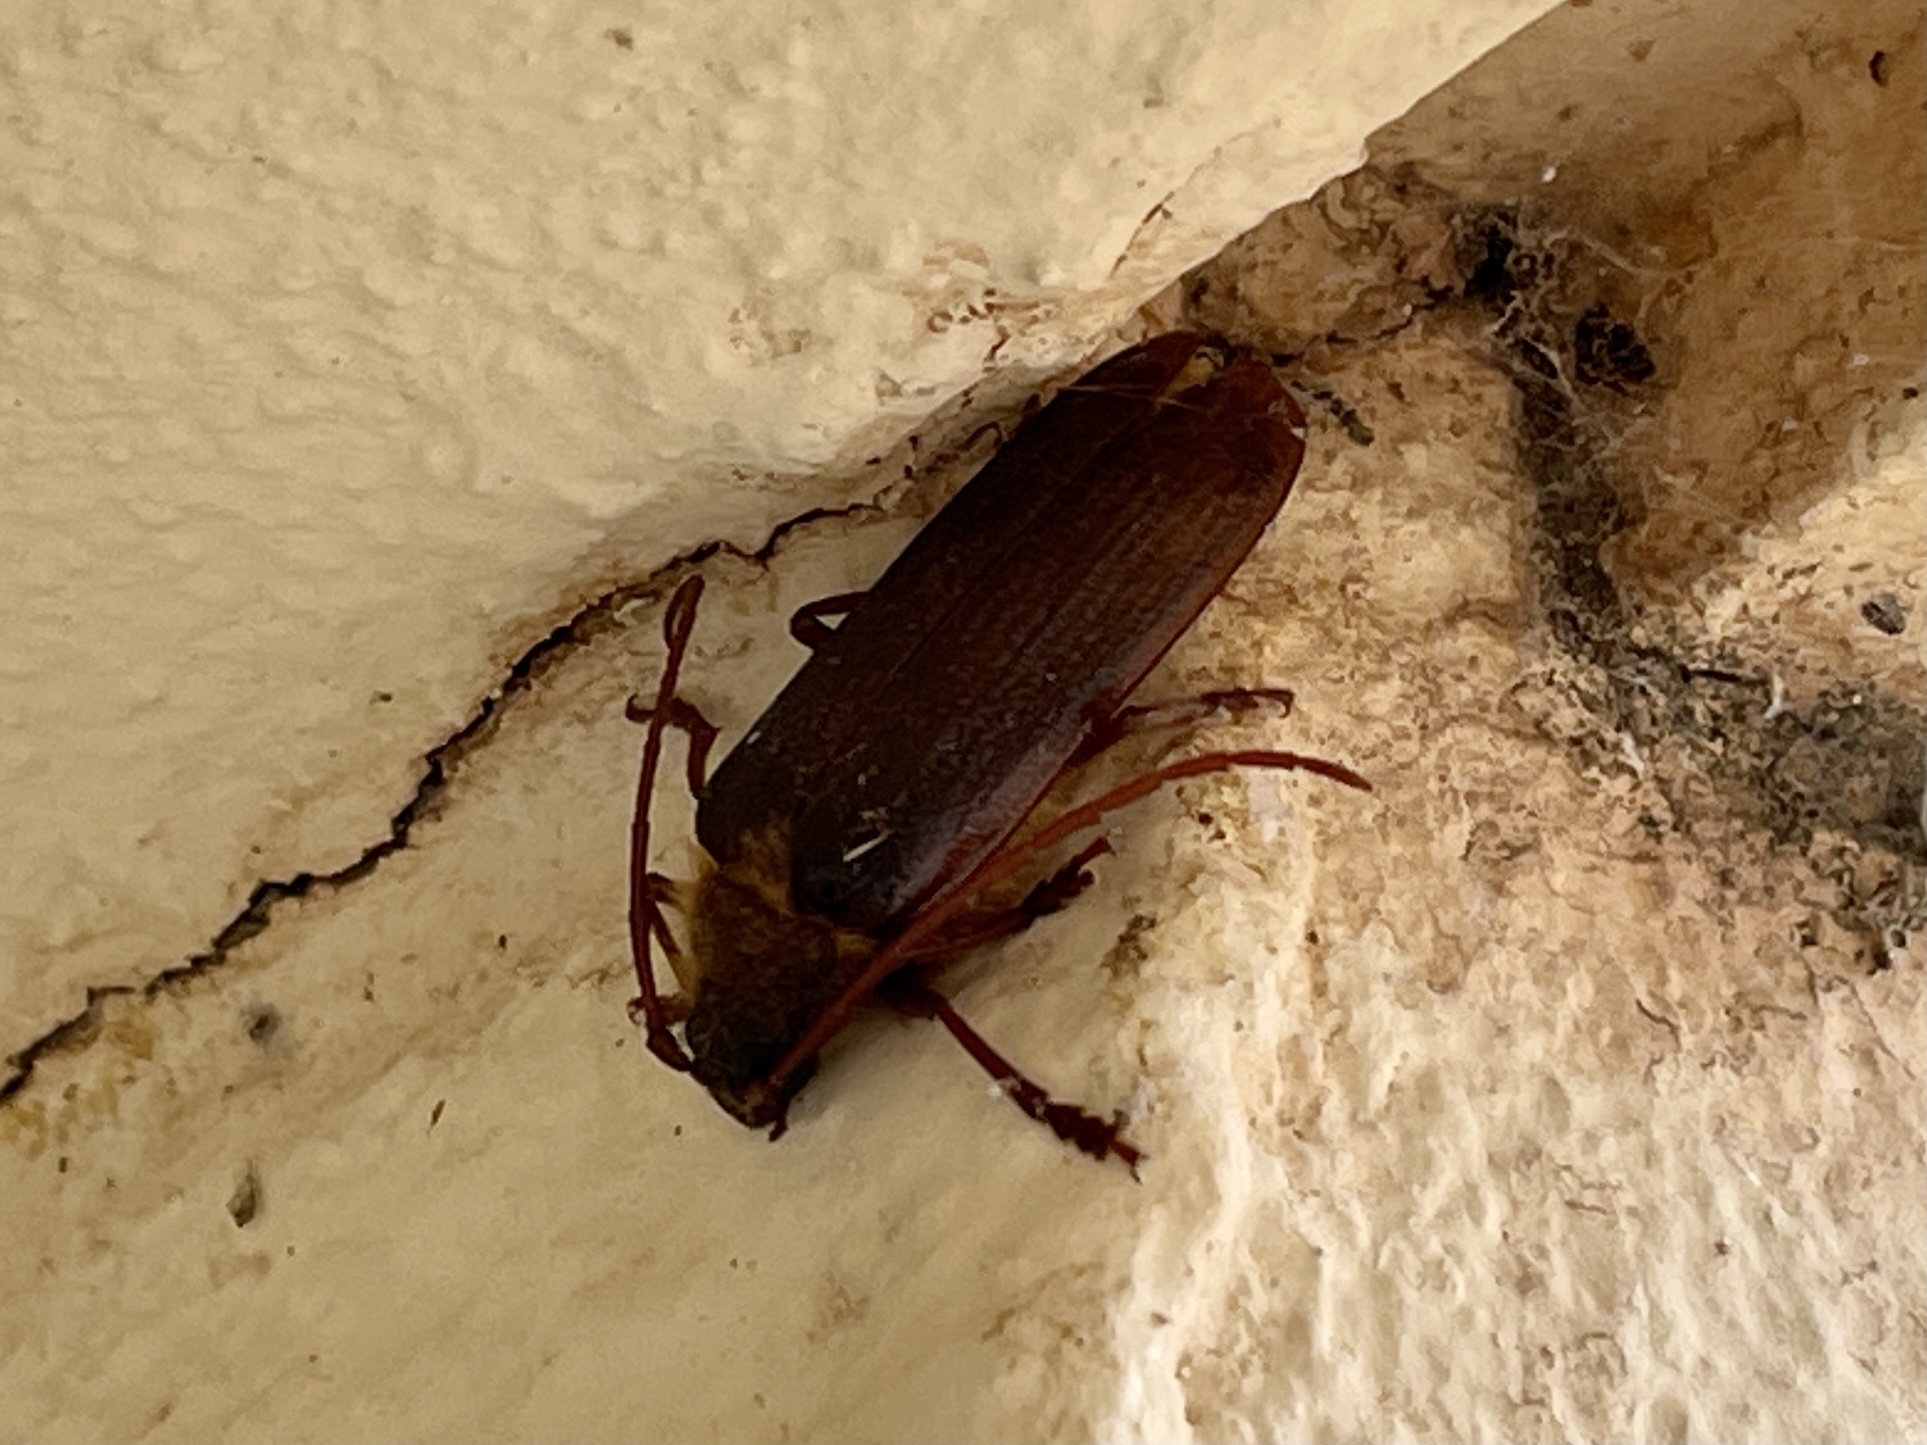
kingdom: Animalia
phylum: Arthropoda
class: Insecta
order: Coleoptera
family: Cerambycidae
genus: Tragosoma
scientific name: Tragosoma harrisii
